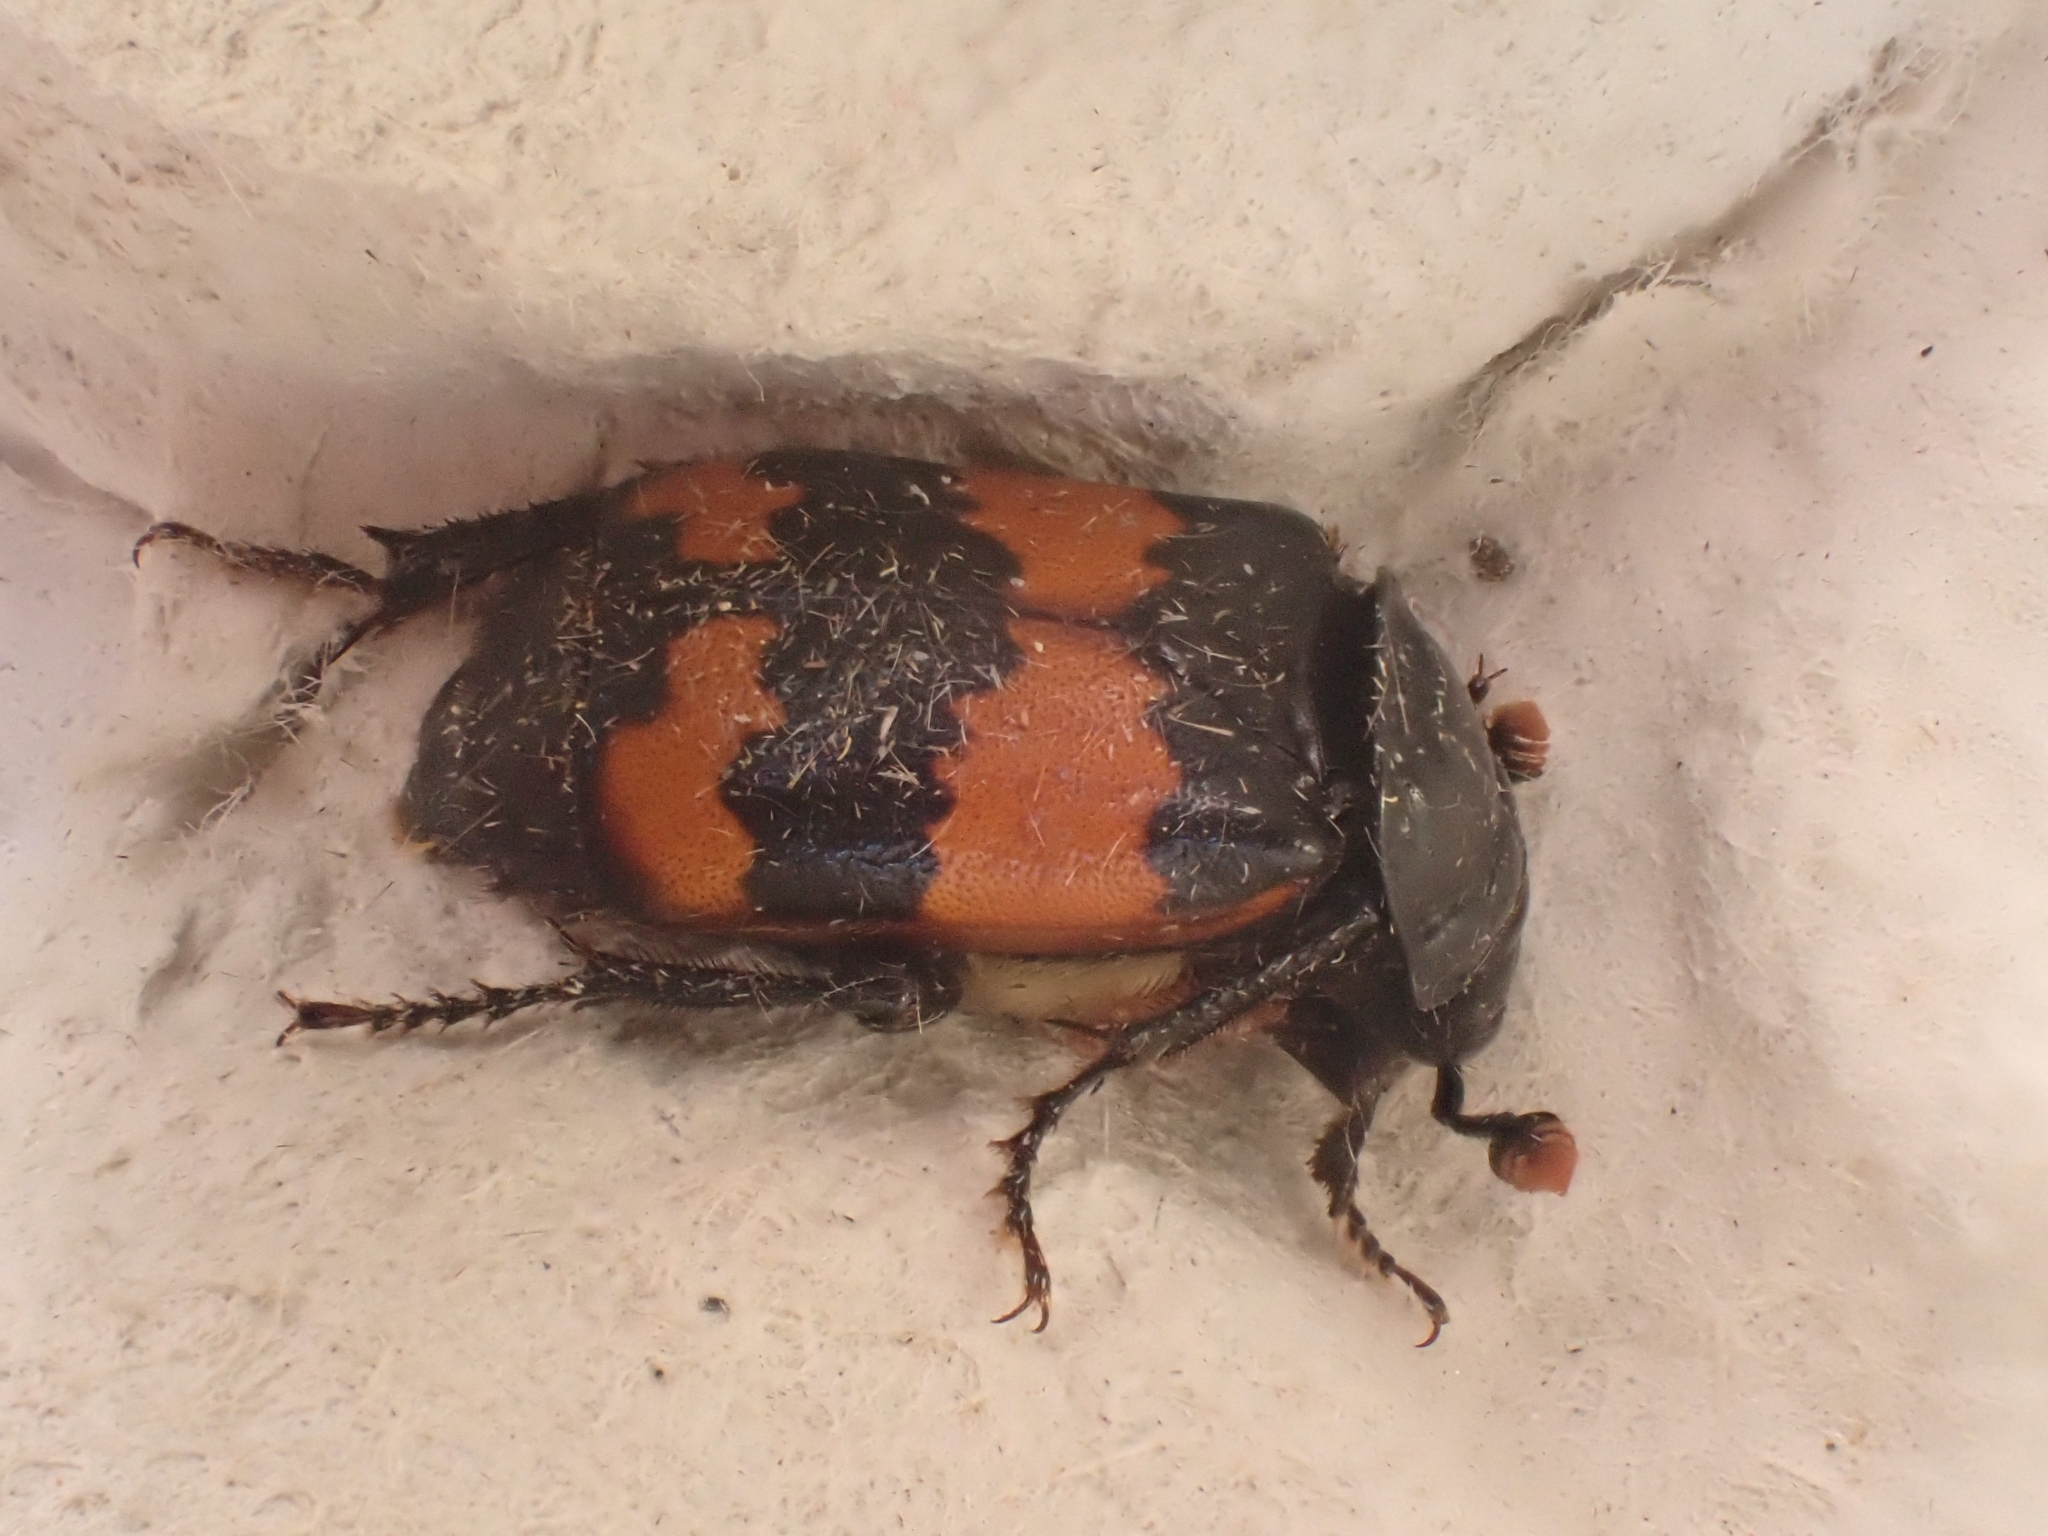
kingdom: Animalia
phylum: Arthropoda
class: Insecta
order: Coleoptera
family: Staphylinidae
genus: Nicrophorus
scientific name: Nicrophorus investigator
